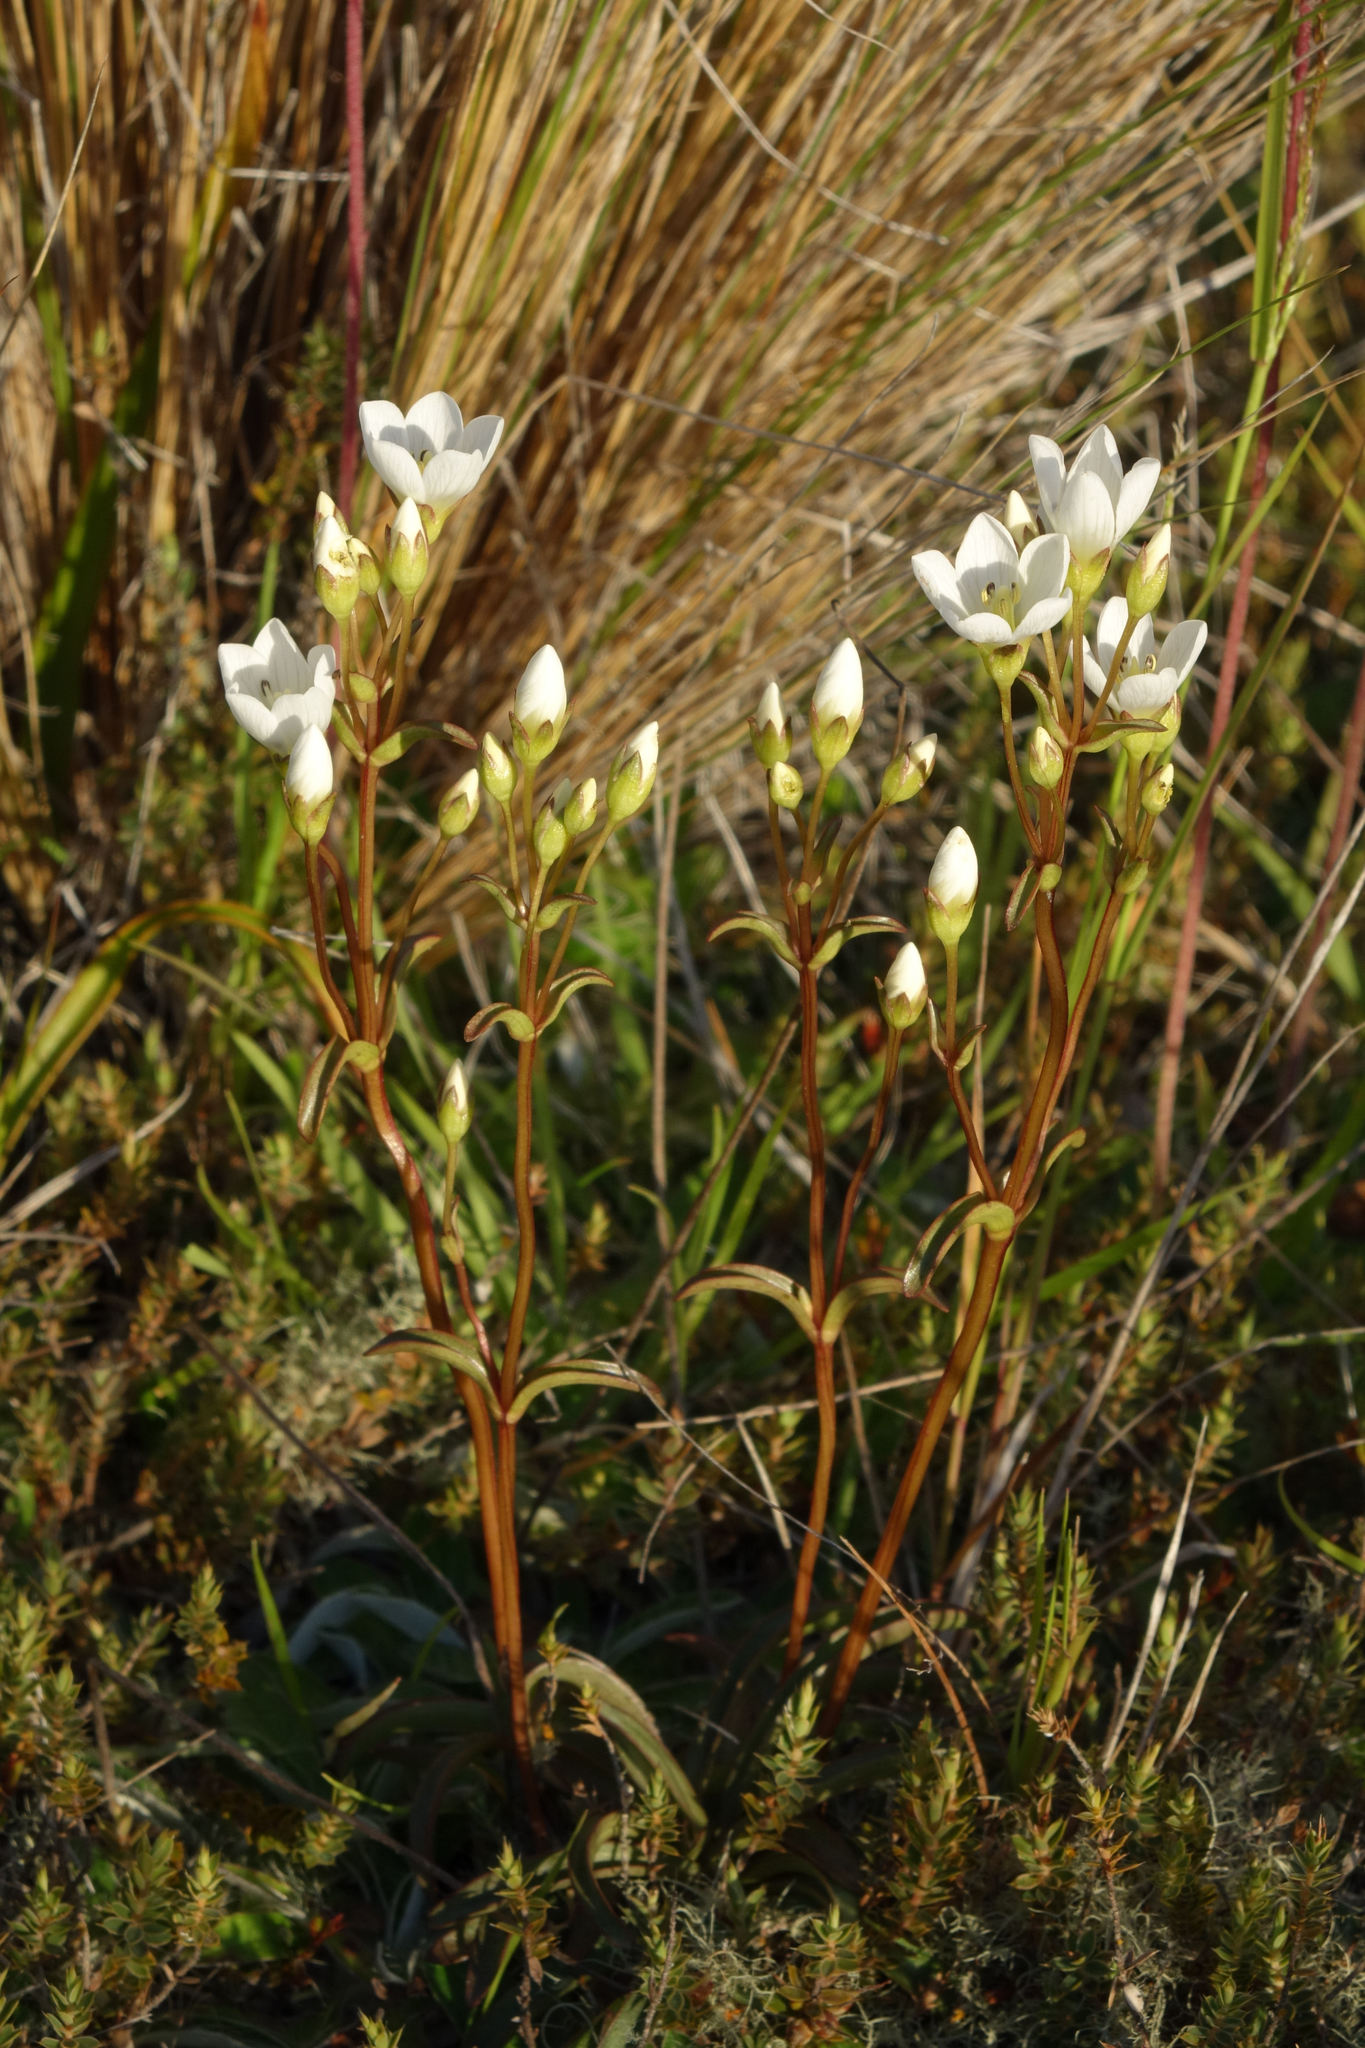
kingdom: Plantae
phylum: Tracheophyta
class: Magnoliopsida
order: Gentianales
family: Gentianaceae
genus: Gentianella
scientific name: Gentianella corymbifera
